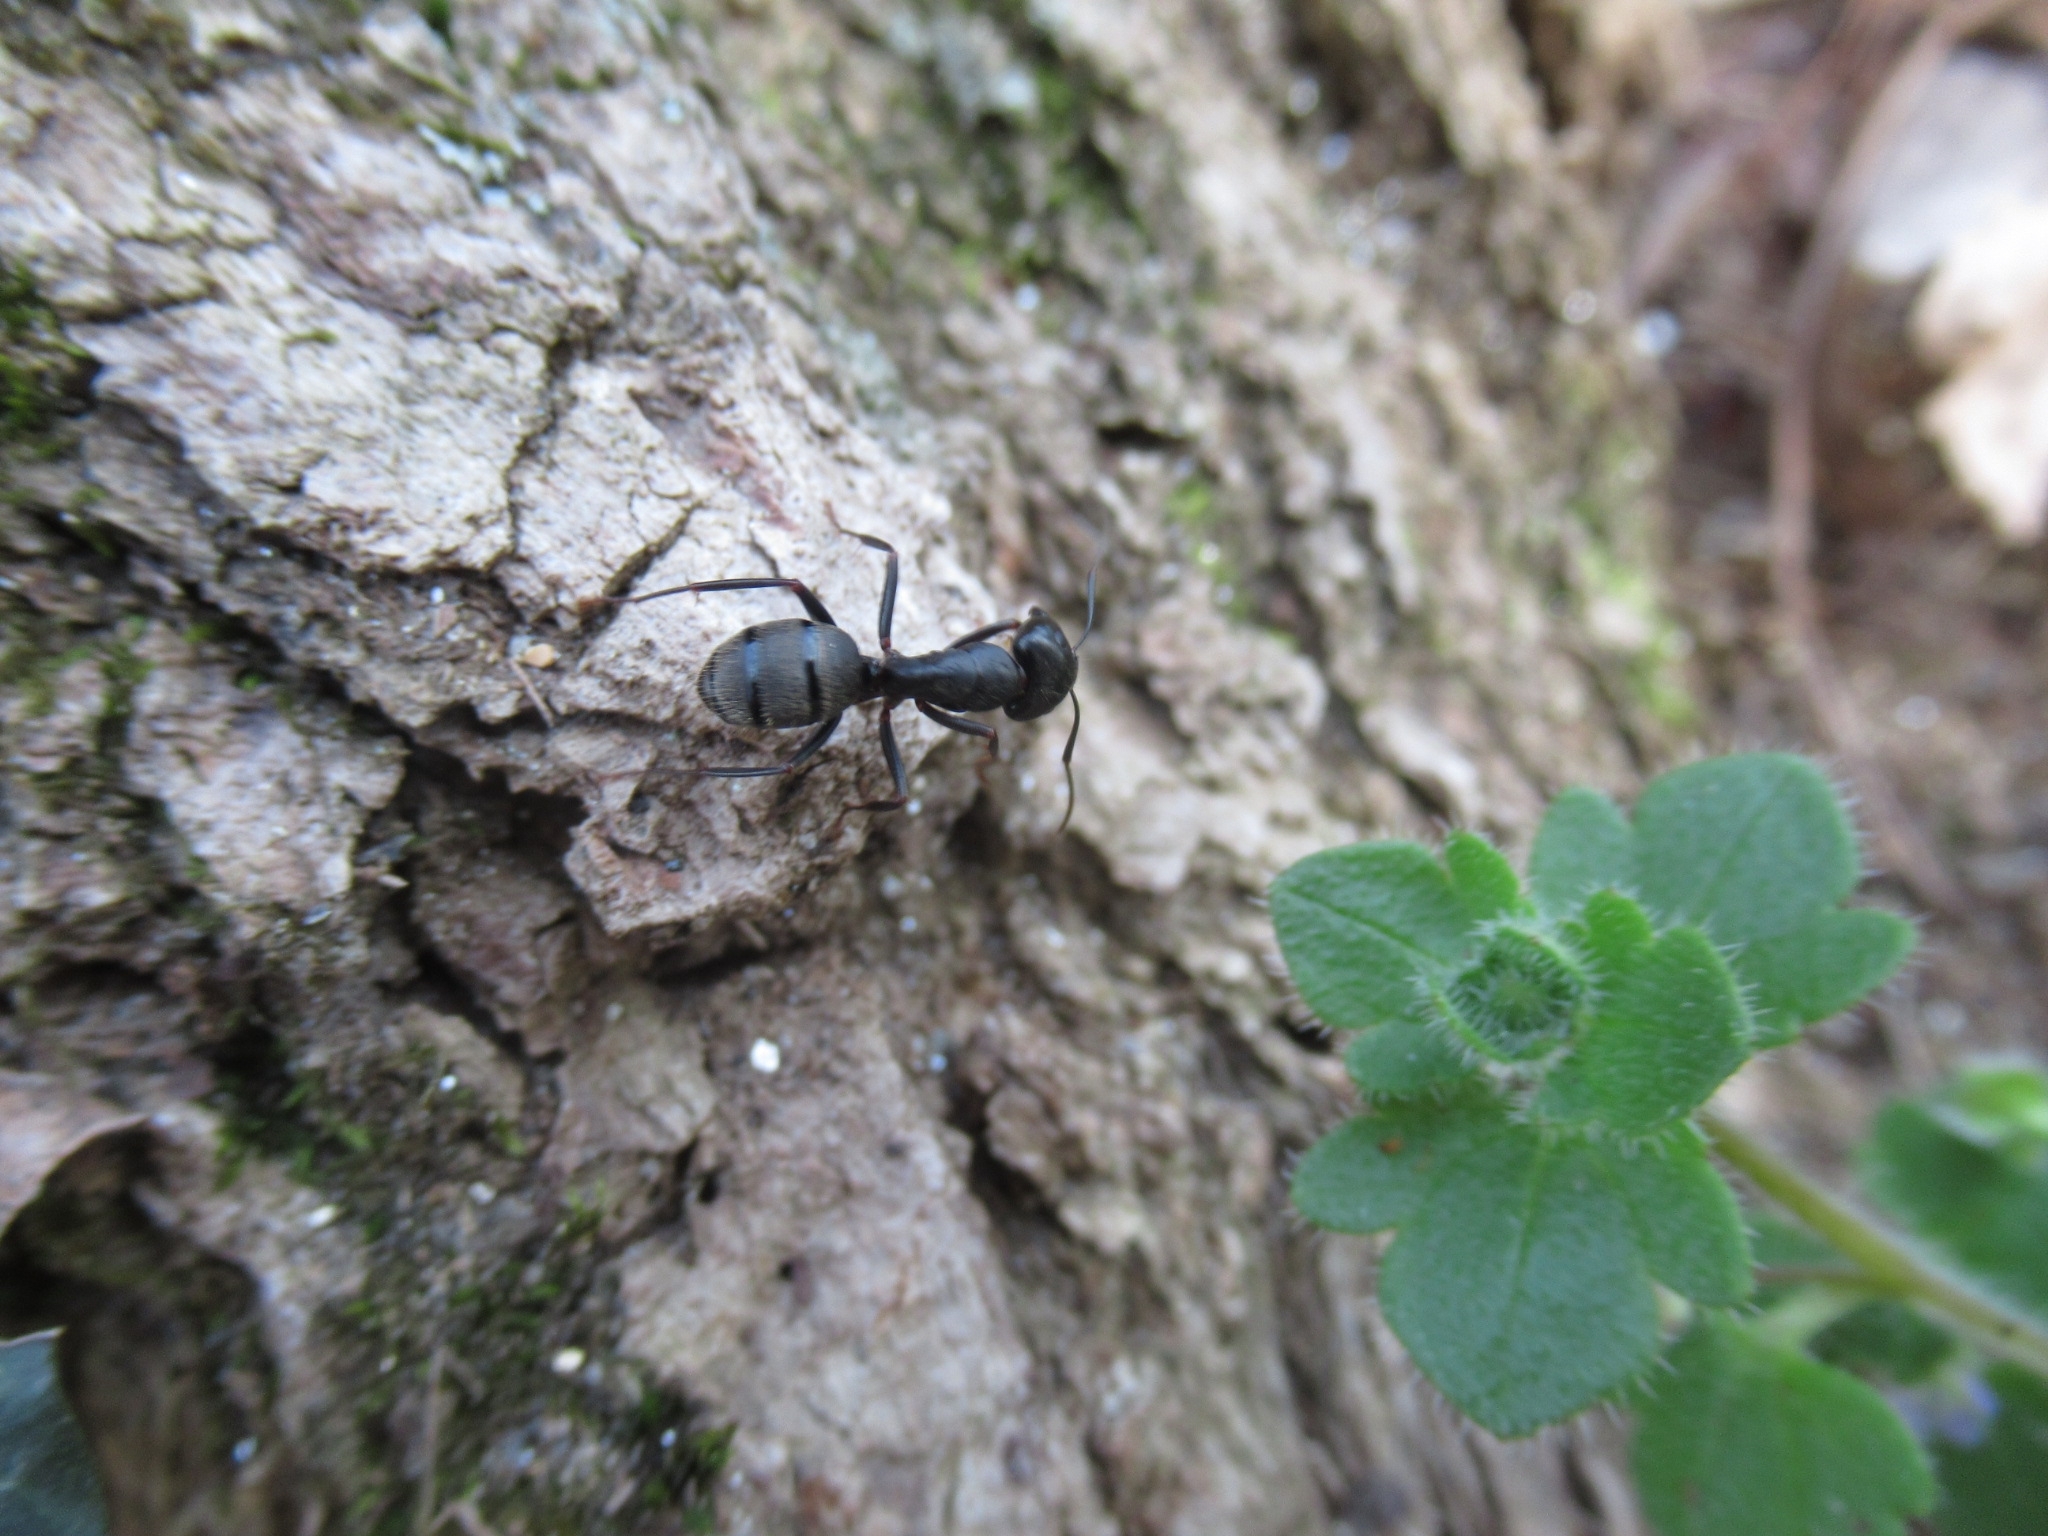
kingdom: Animalia
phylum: Arthropoda
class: Insecta
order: Hymenoptera
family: Formicidae
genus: Camponotus
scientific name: Camponotus pennsylvanicus
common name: Black carpenter ant
